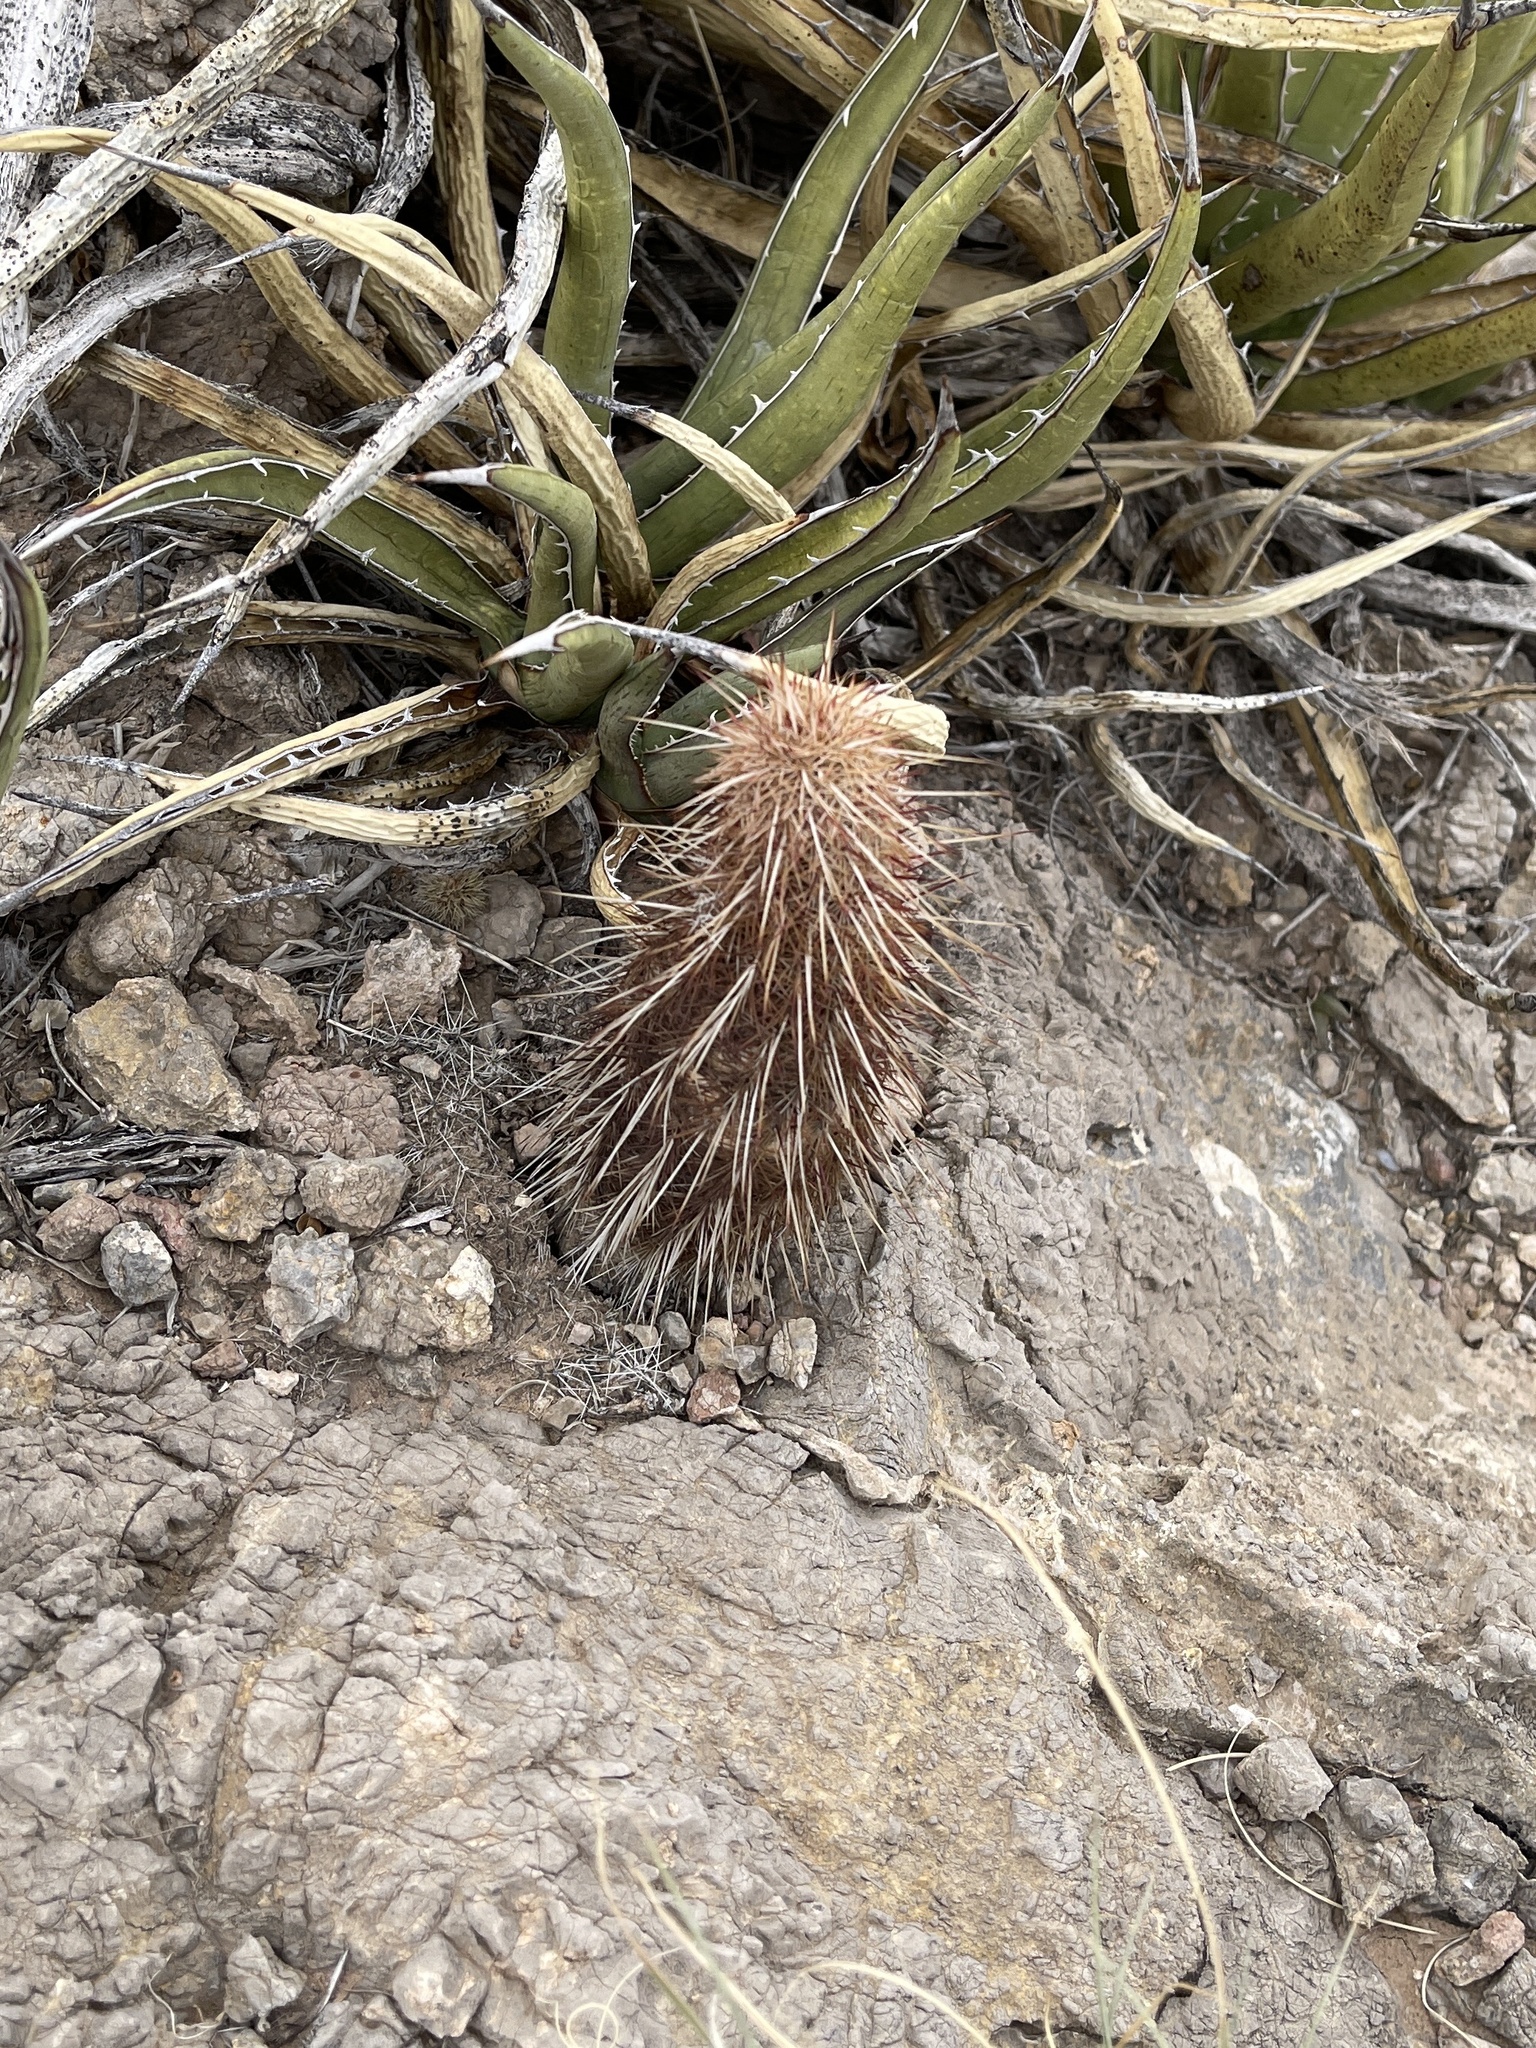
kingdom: Plantae
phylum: Tracheophyta
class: Magnoliopsida
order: Caryophyllales
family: Cactaceae
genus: Echinocereus
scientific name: Echinocereus viridiflorus
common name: Nylon hedgehog cactus
